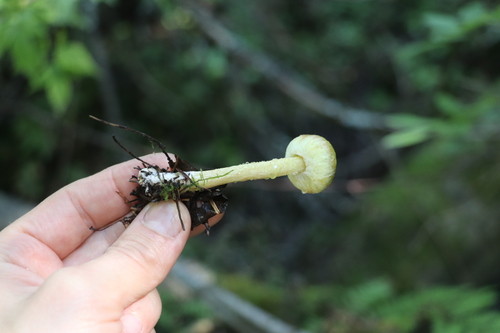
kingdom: Fungi
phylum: Basidiomycota
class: Agaricomycetes
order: Boletales
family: Suillaceae
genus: Suillus
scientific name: Suillus americanus
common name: Chicken fat mushroom
